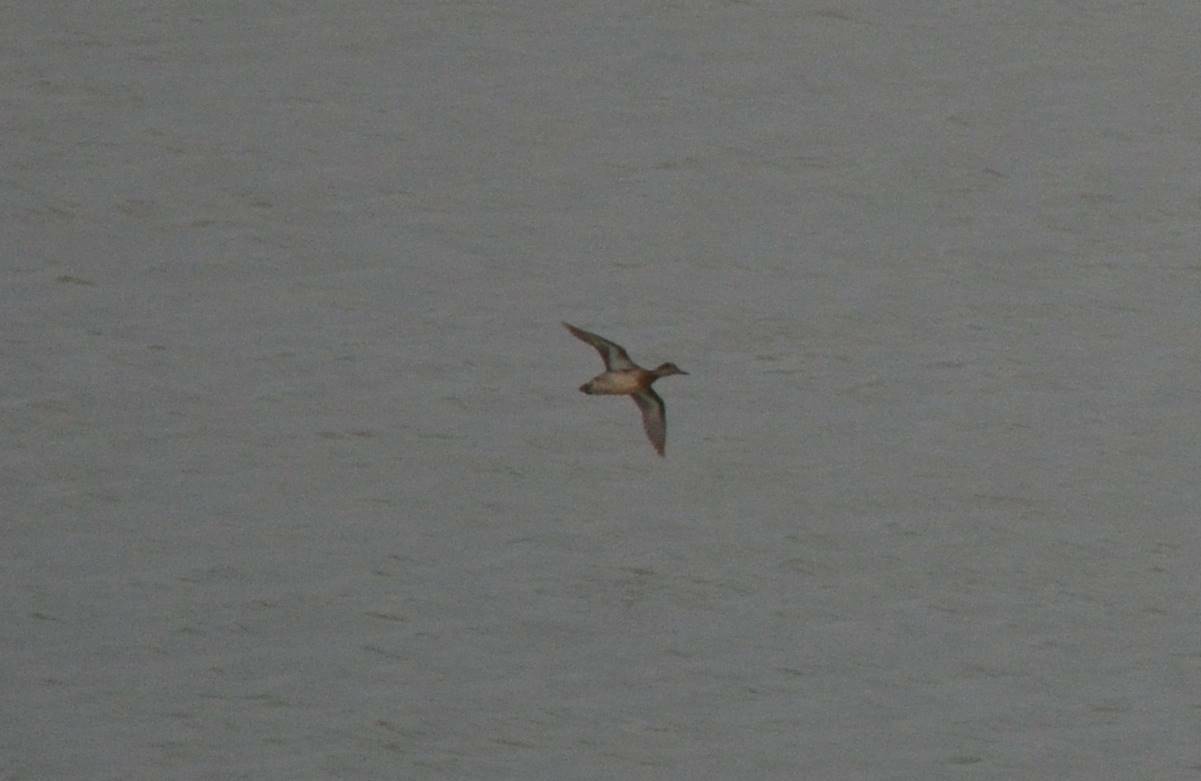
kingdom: Animalia
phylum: Chordata
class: Aves
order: Anseriformes
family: Anatidae
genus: Anas
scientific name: Anas crecca
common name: Eurasian teal
